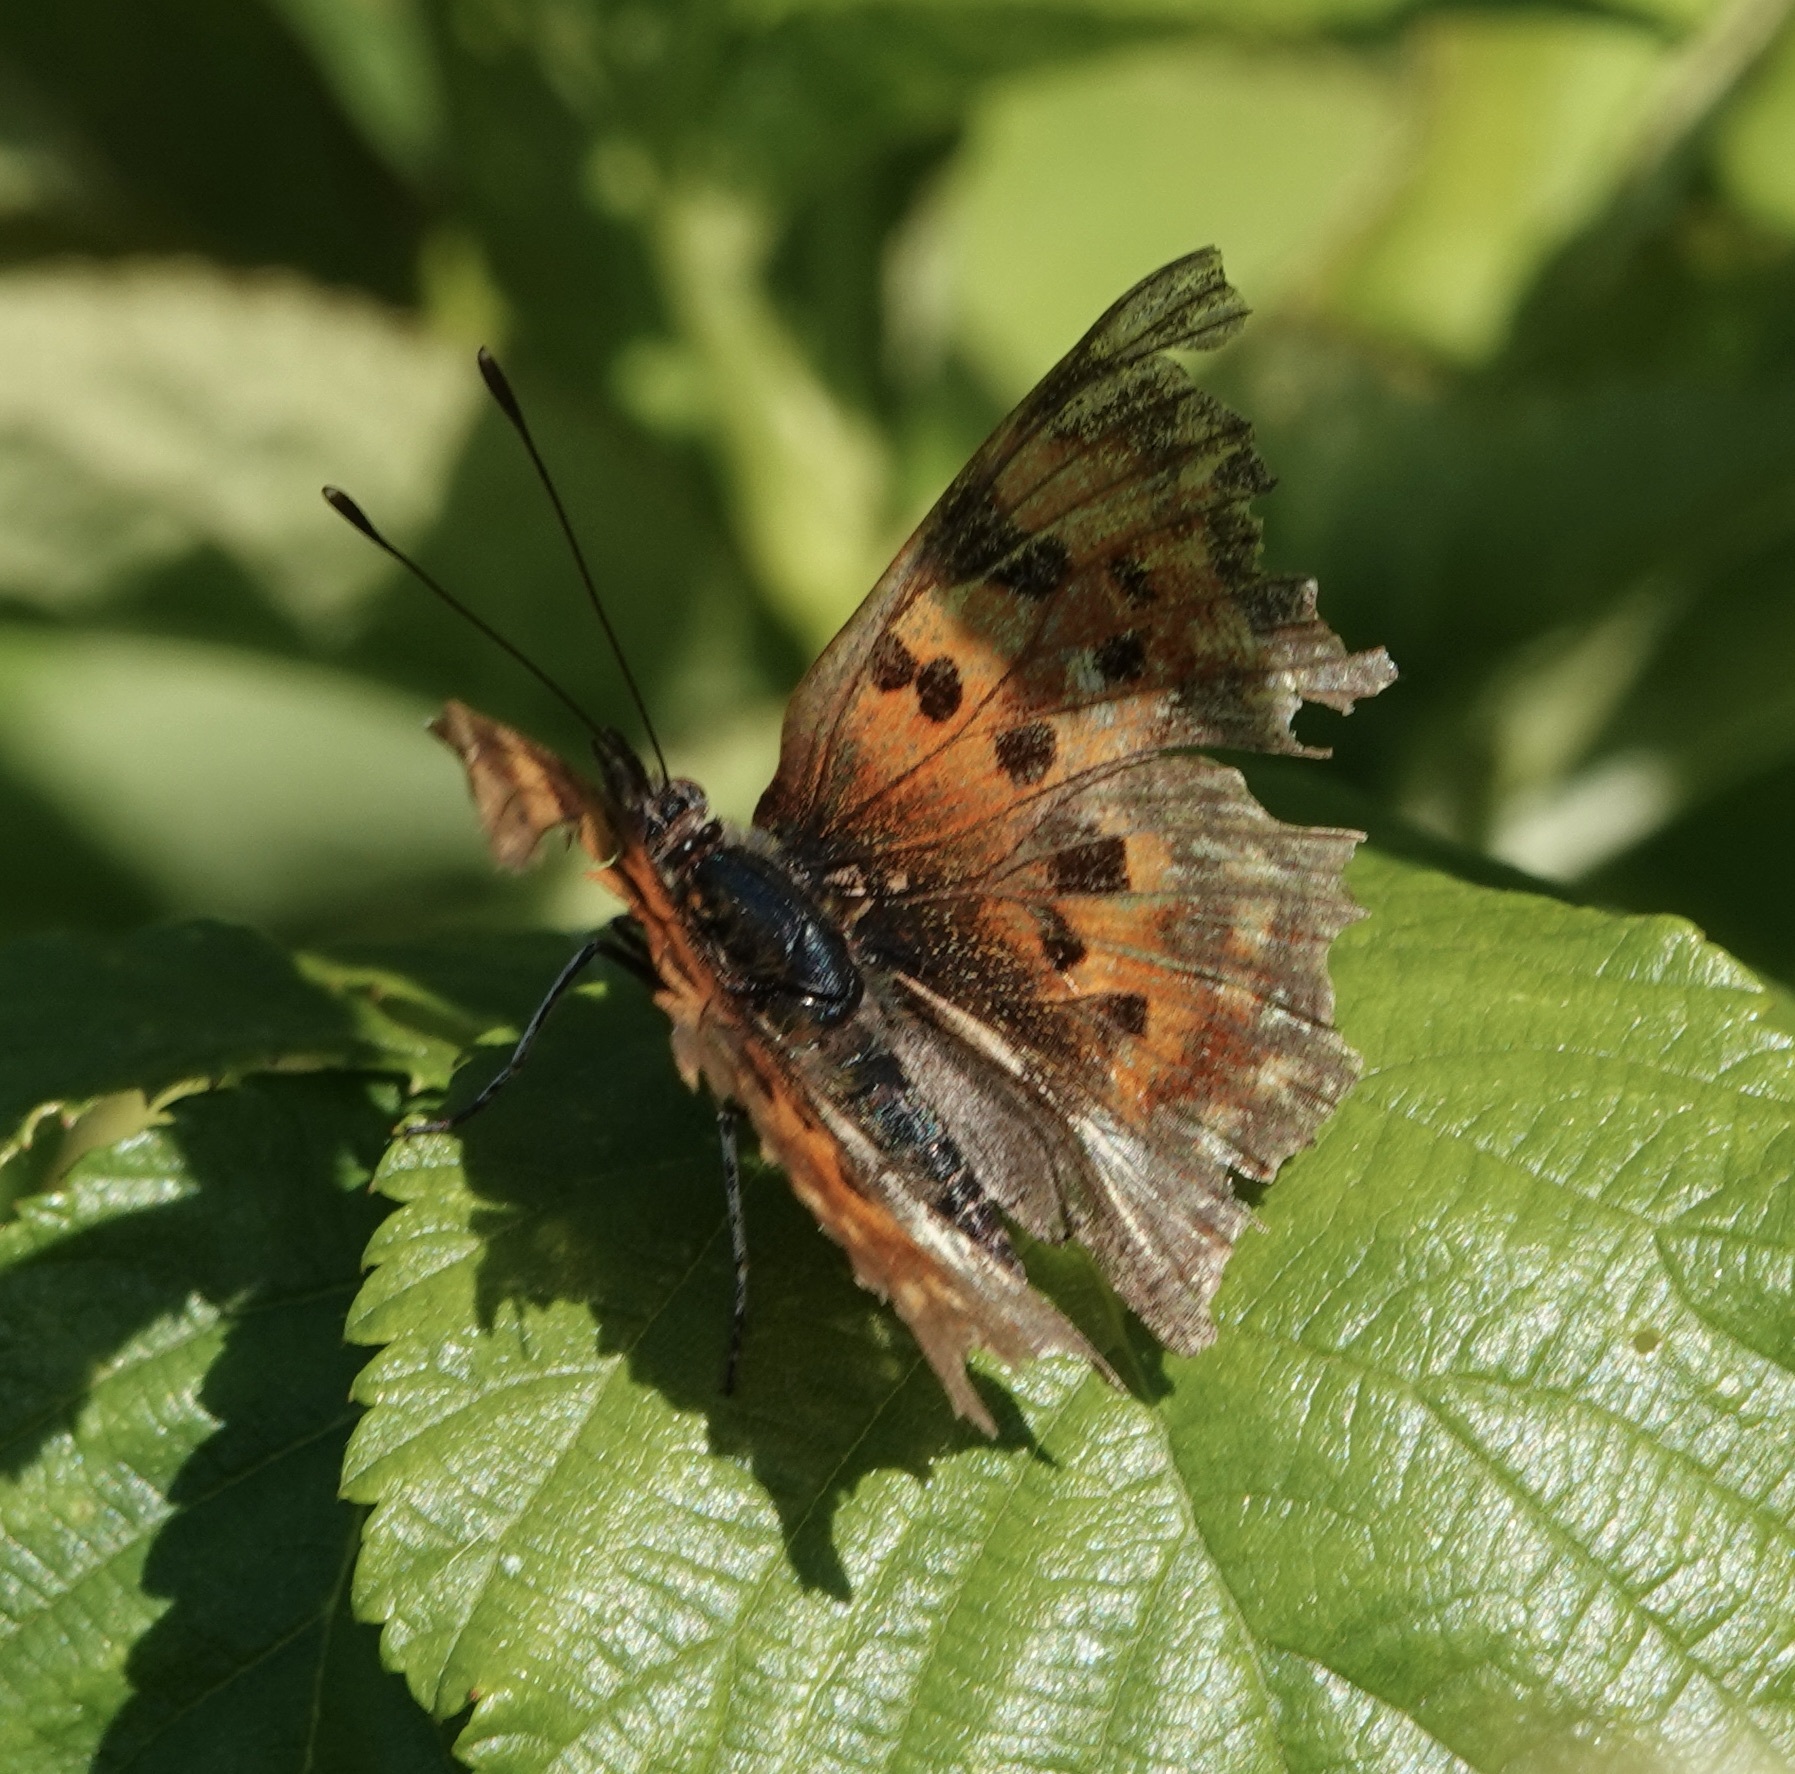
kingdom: Animalia
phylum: Arthropoda
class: Insecta
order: Lepidoptera
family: Nymphalidae
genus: Polygonia
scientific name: Polygonia c-album
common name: Comma
